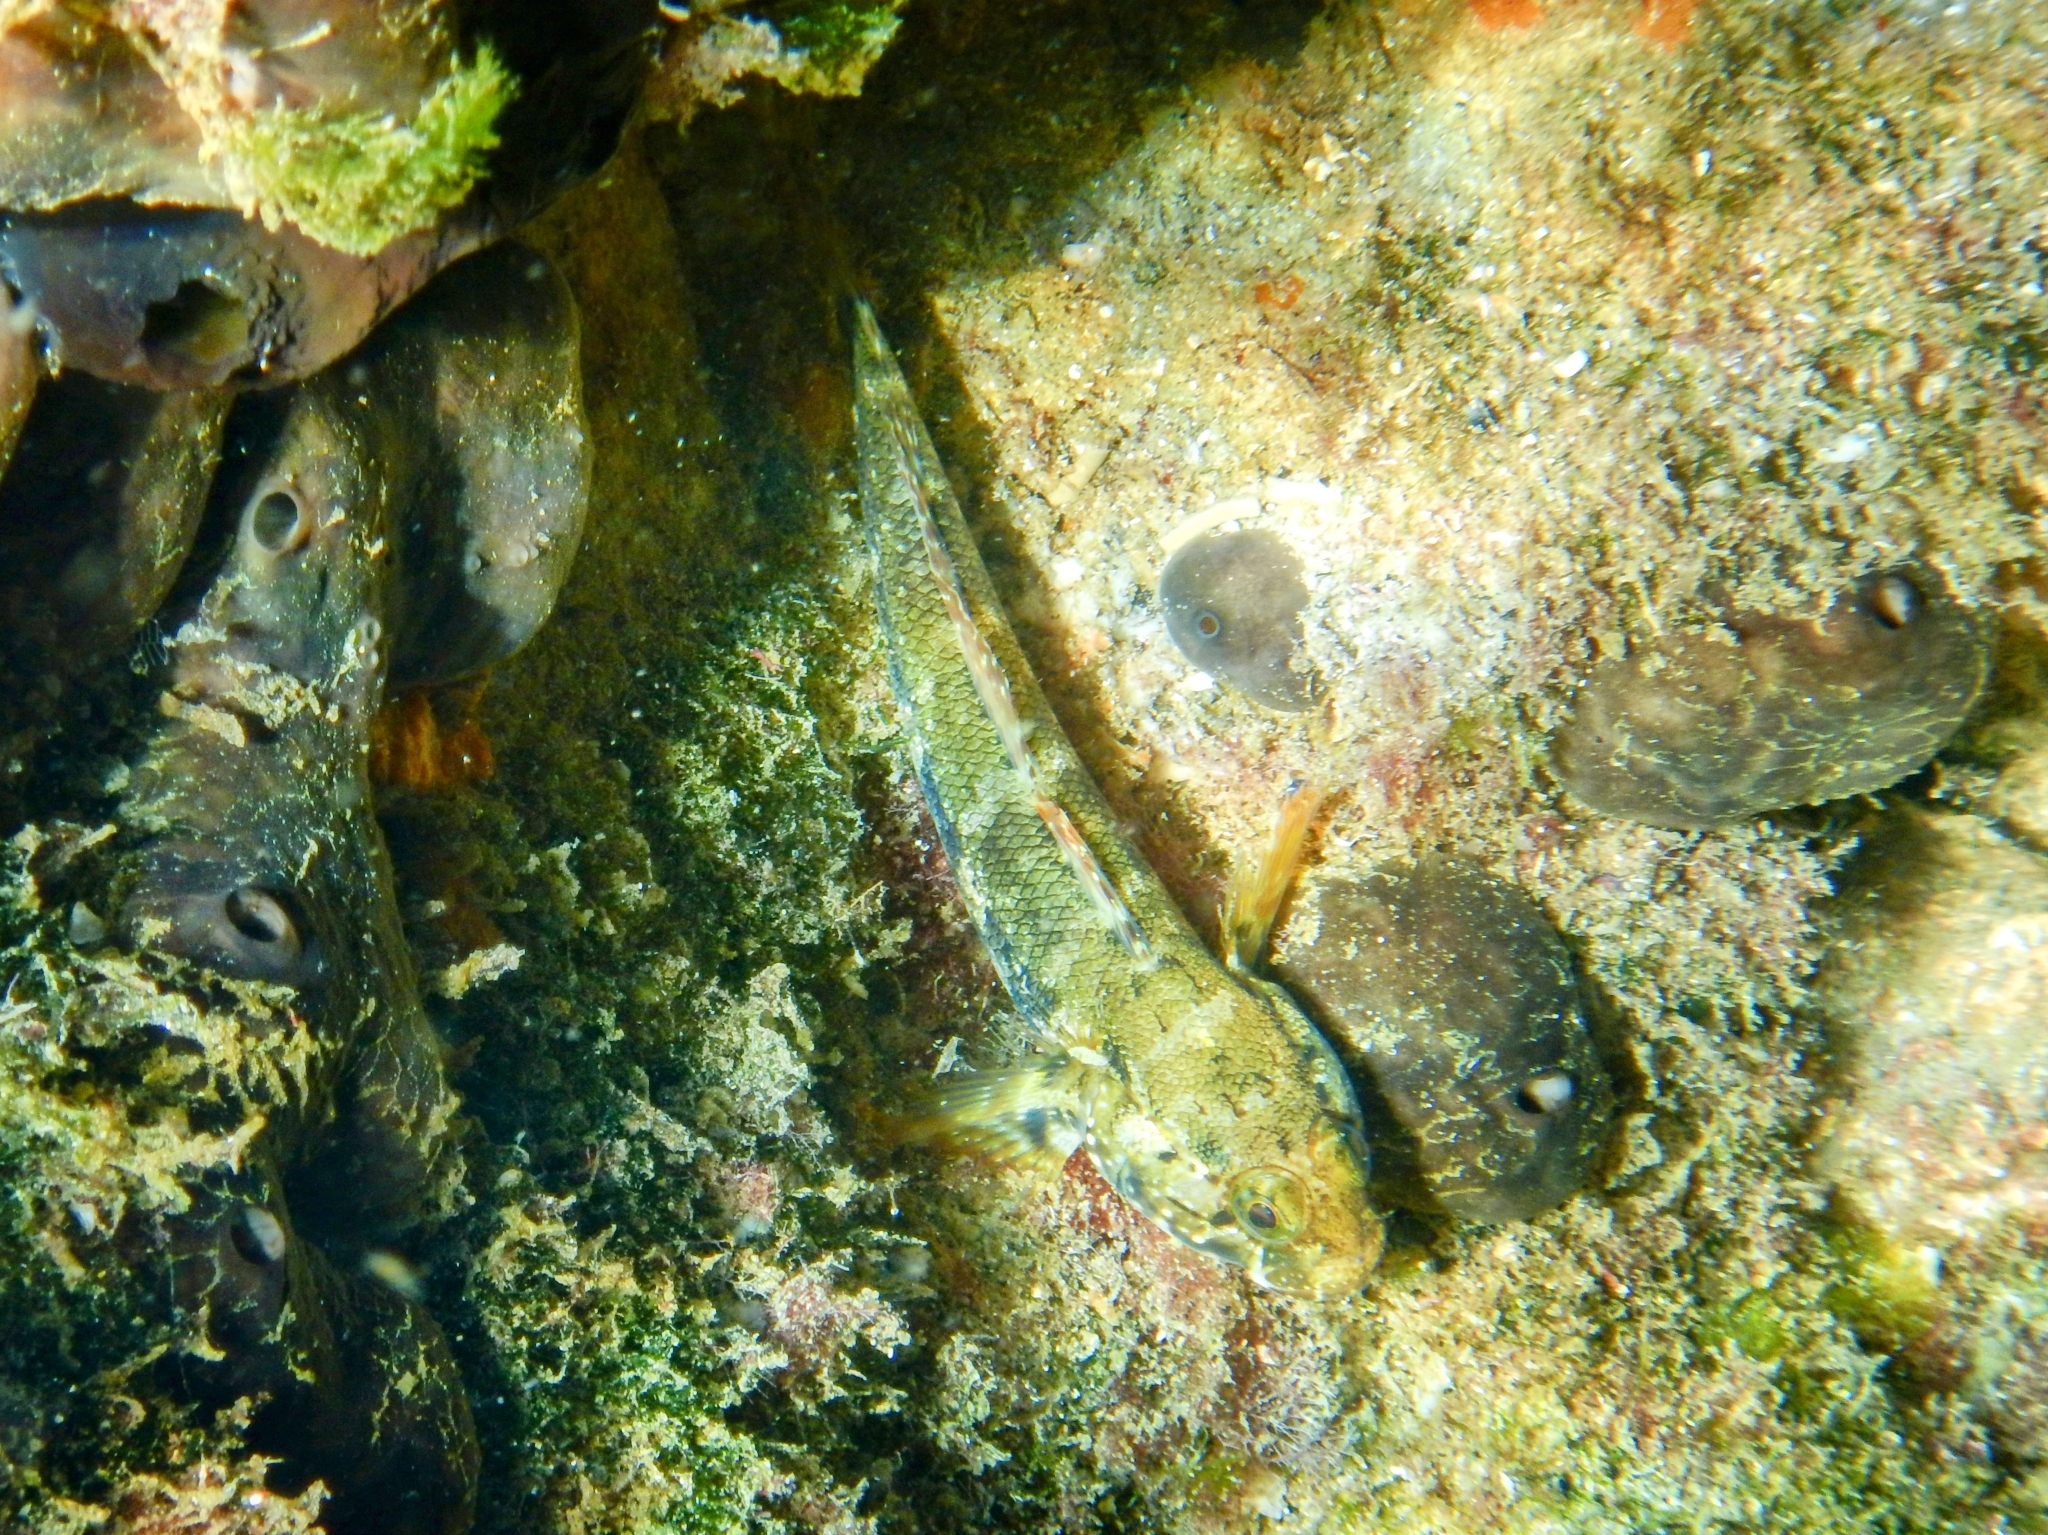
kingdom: Animalia
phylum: Chordata
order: Perciformes
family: Gobiidae
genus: Gobius
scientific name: Gobius paganellus
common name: Rock goby
